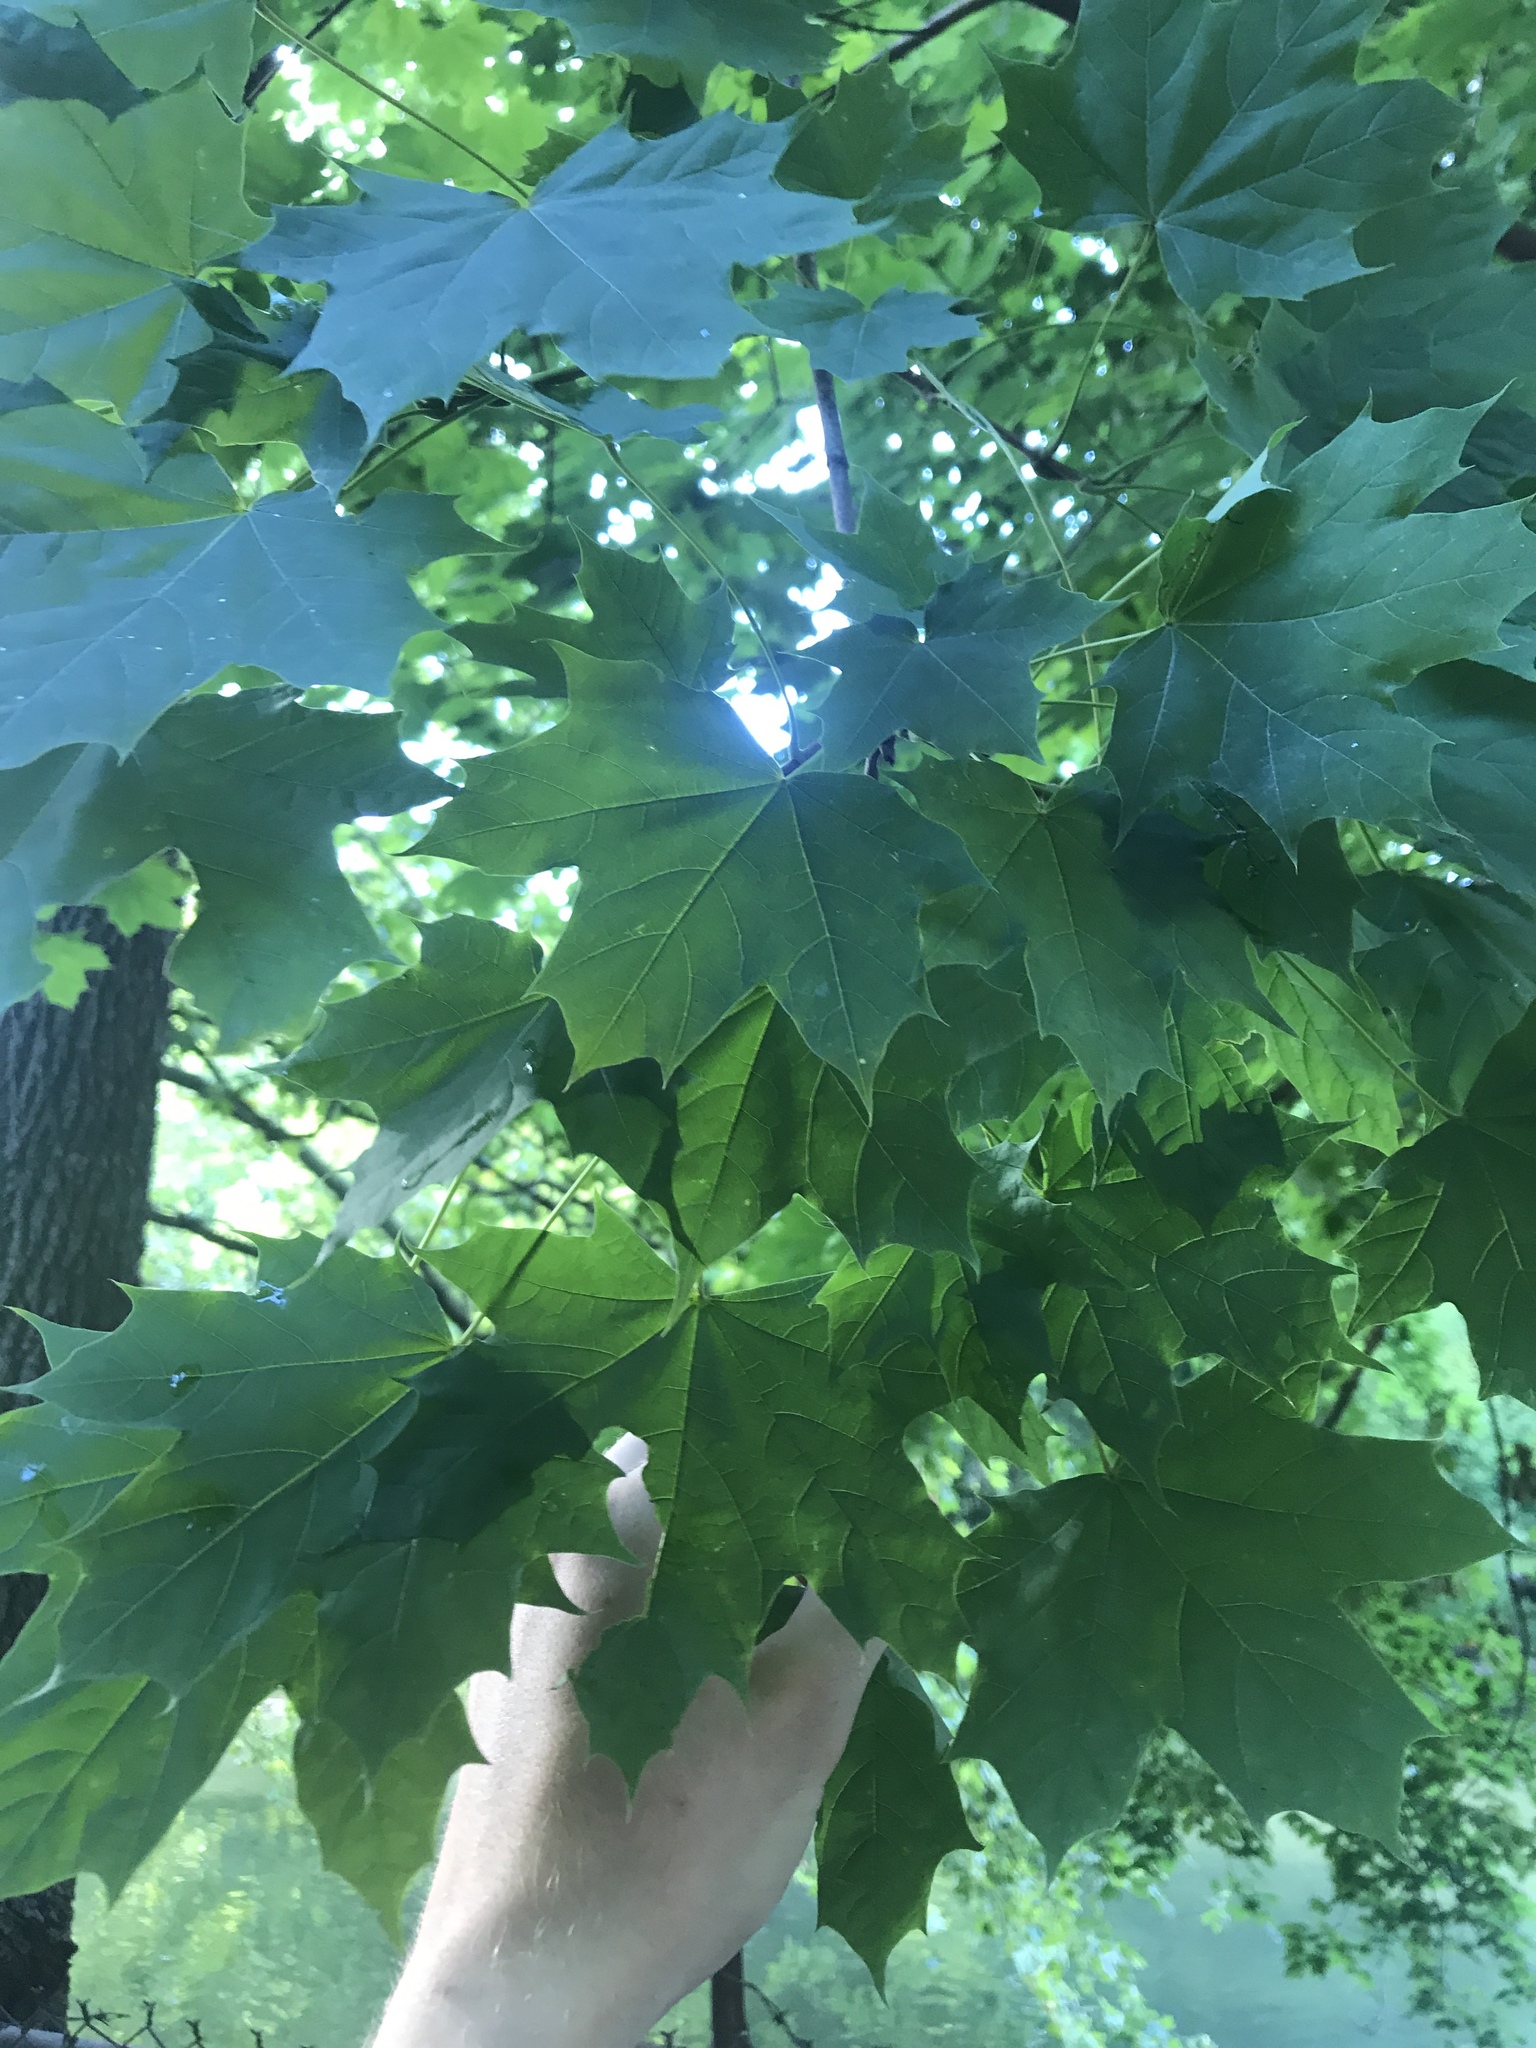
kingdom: Plantae
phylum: Tracheophyta
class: Magnoliopsida
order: Sapindales
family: Sapindaceae
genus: Acer
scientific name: Acer platanoides
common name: Norway maple
